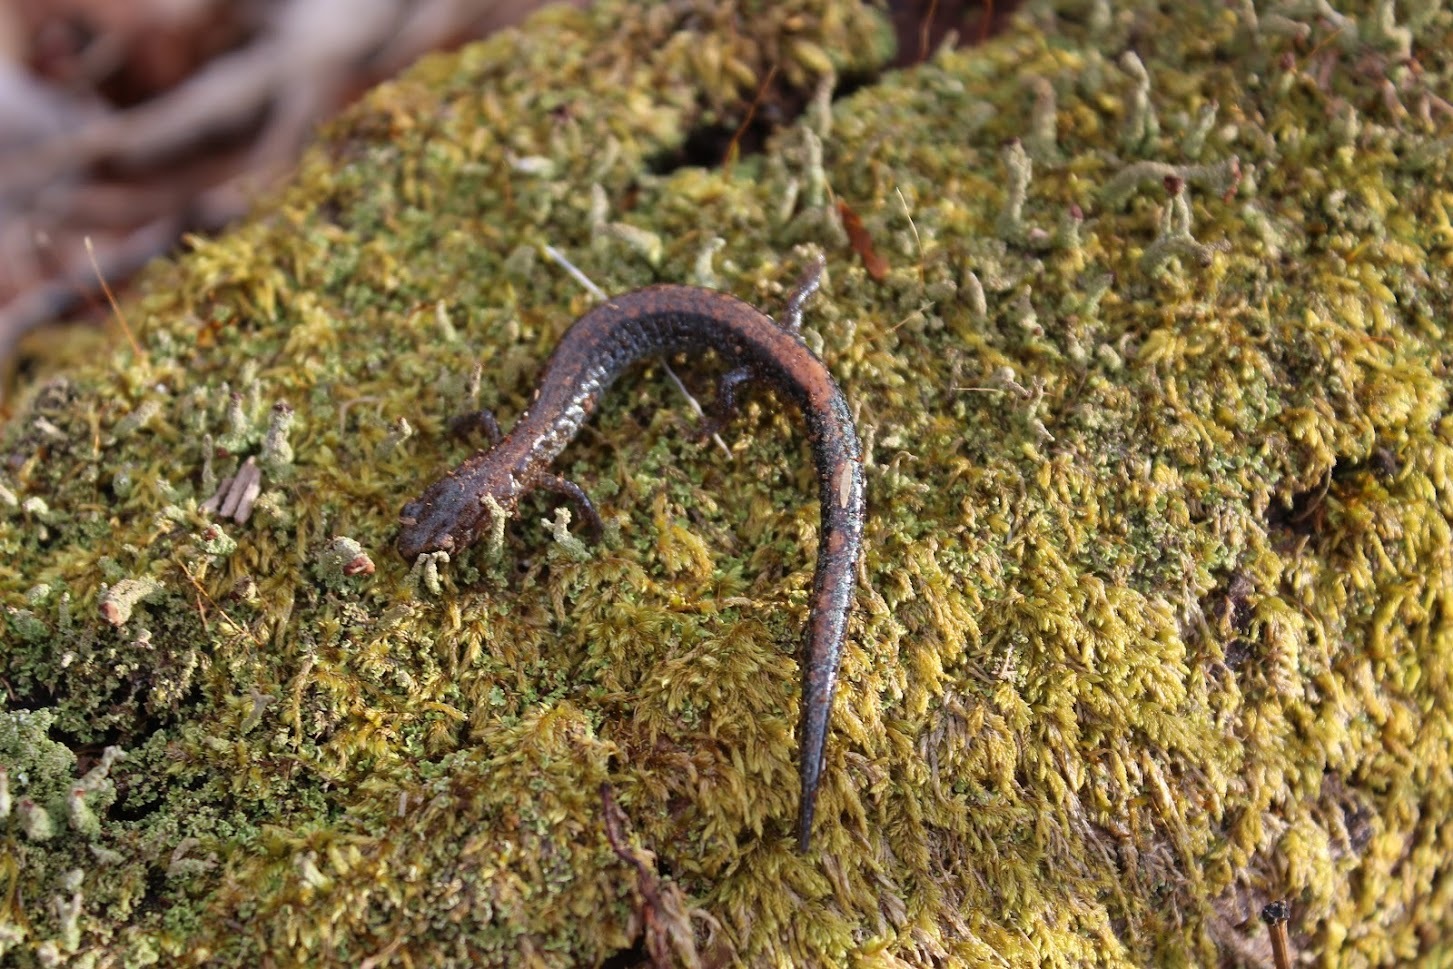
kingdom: Animalia
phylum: Chordata
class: Amphibia
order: Caudata
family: Plethodontidae
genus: Plethodon
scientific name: Plethodon cinereus
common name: Redback salamander
